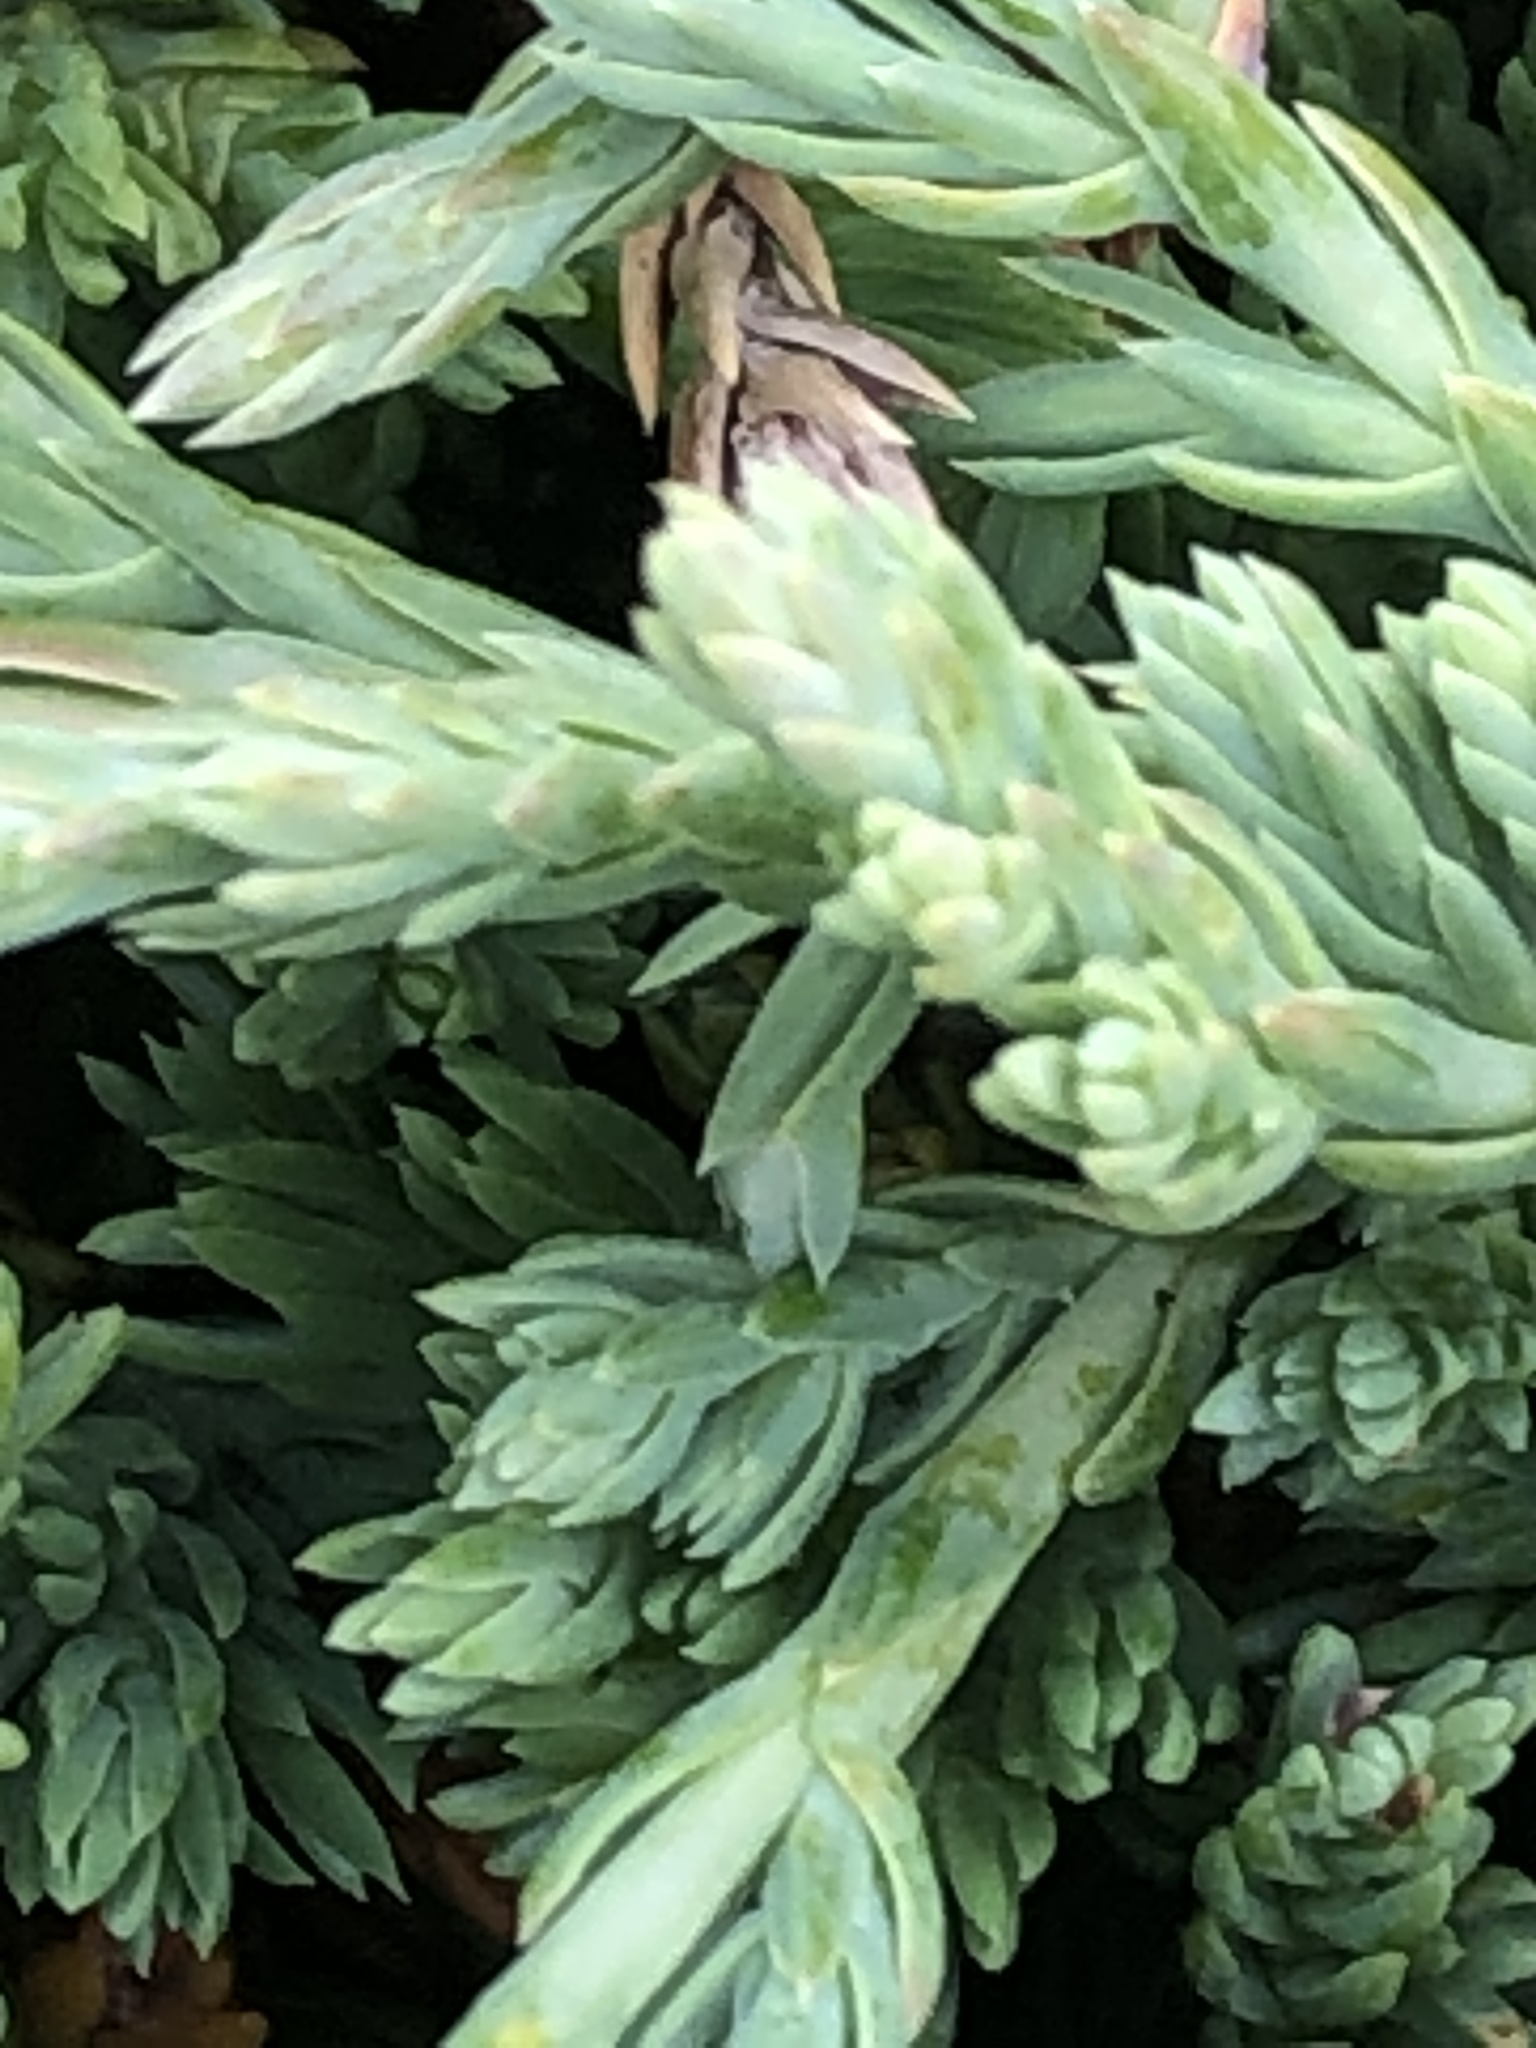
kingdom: Plantae
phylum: Tracheophyta
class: Pinopsida
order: Pinales
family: Cupressaceae
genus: Juniperus
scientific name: Juniperus horizontalis
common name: Creeping juniper
